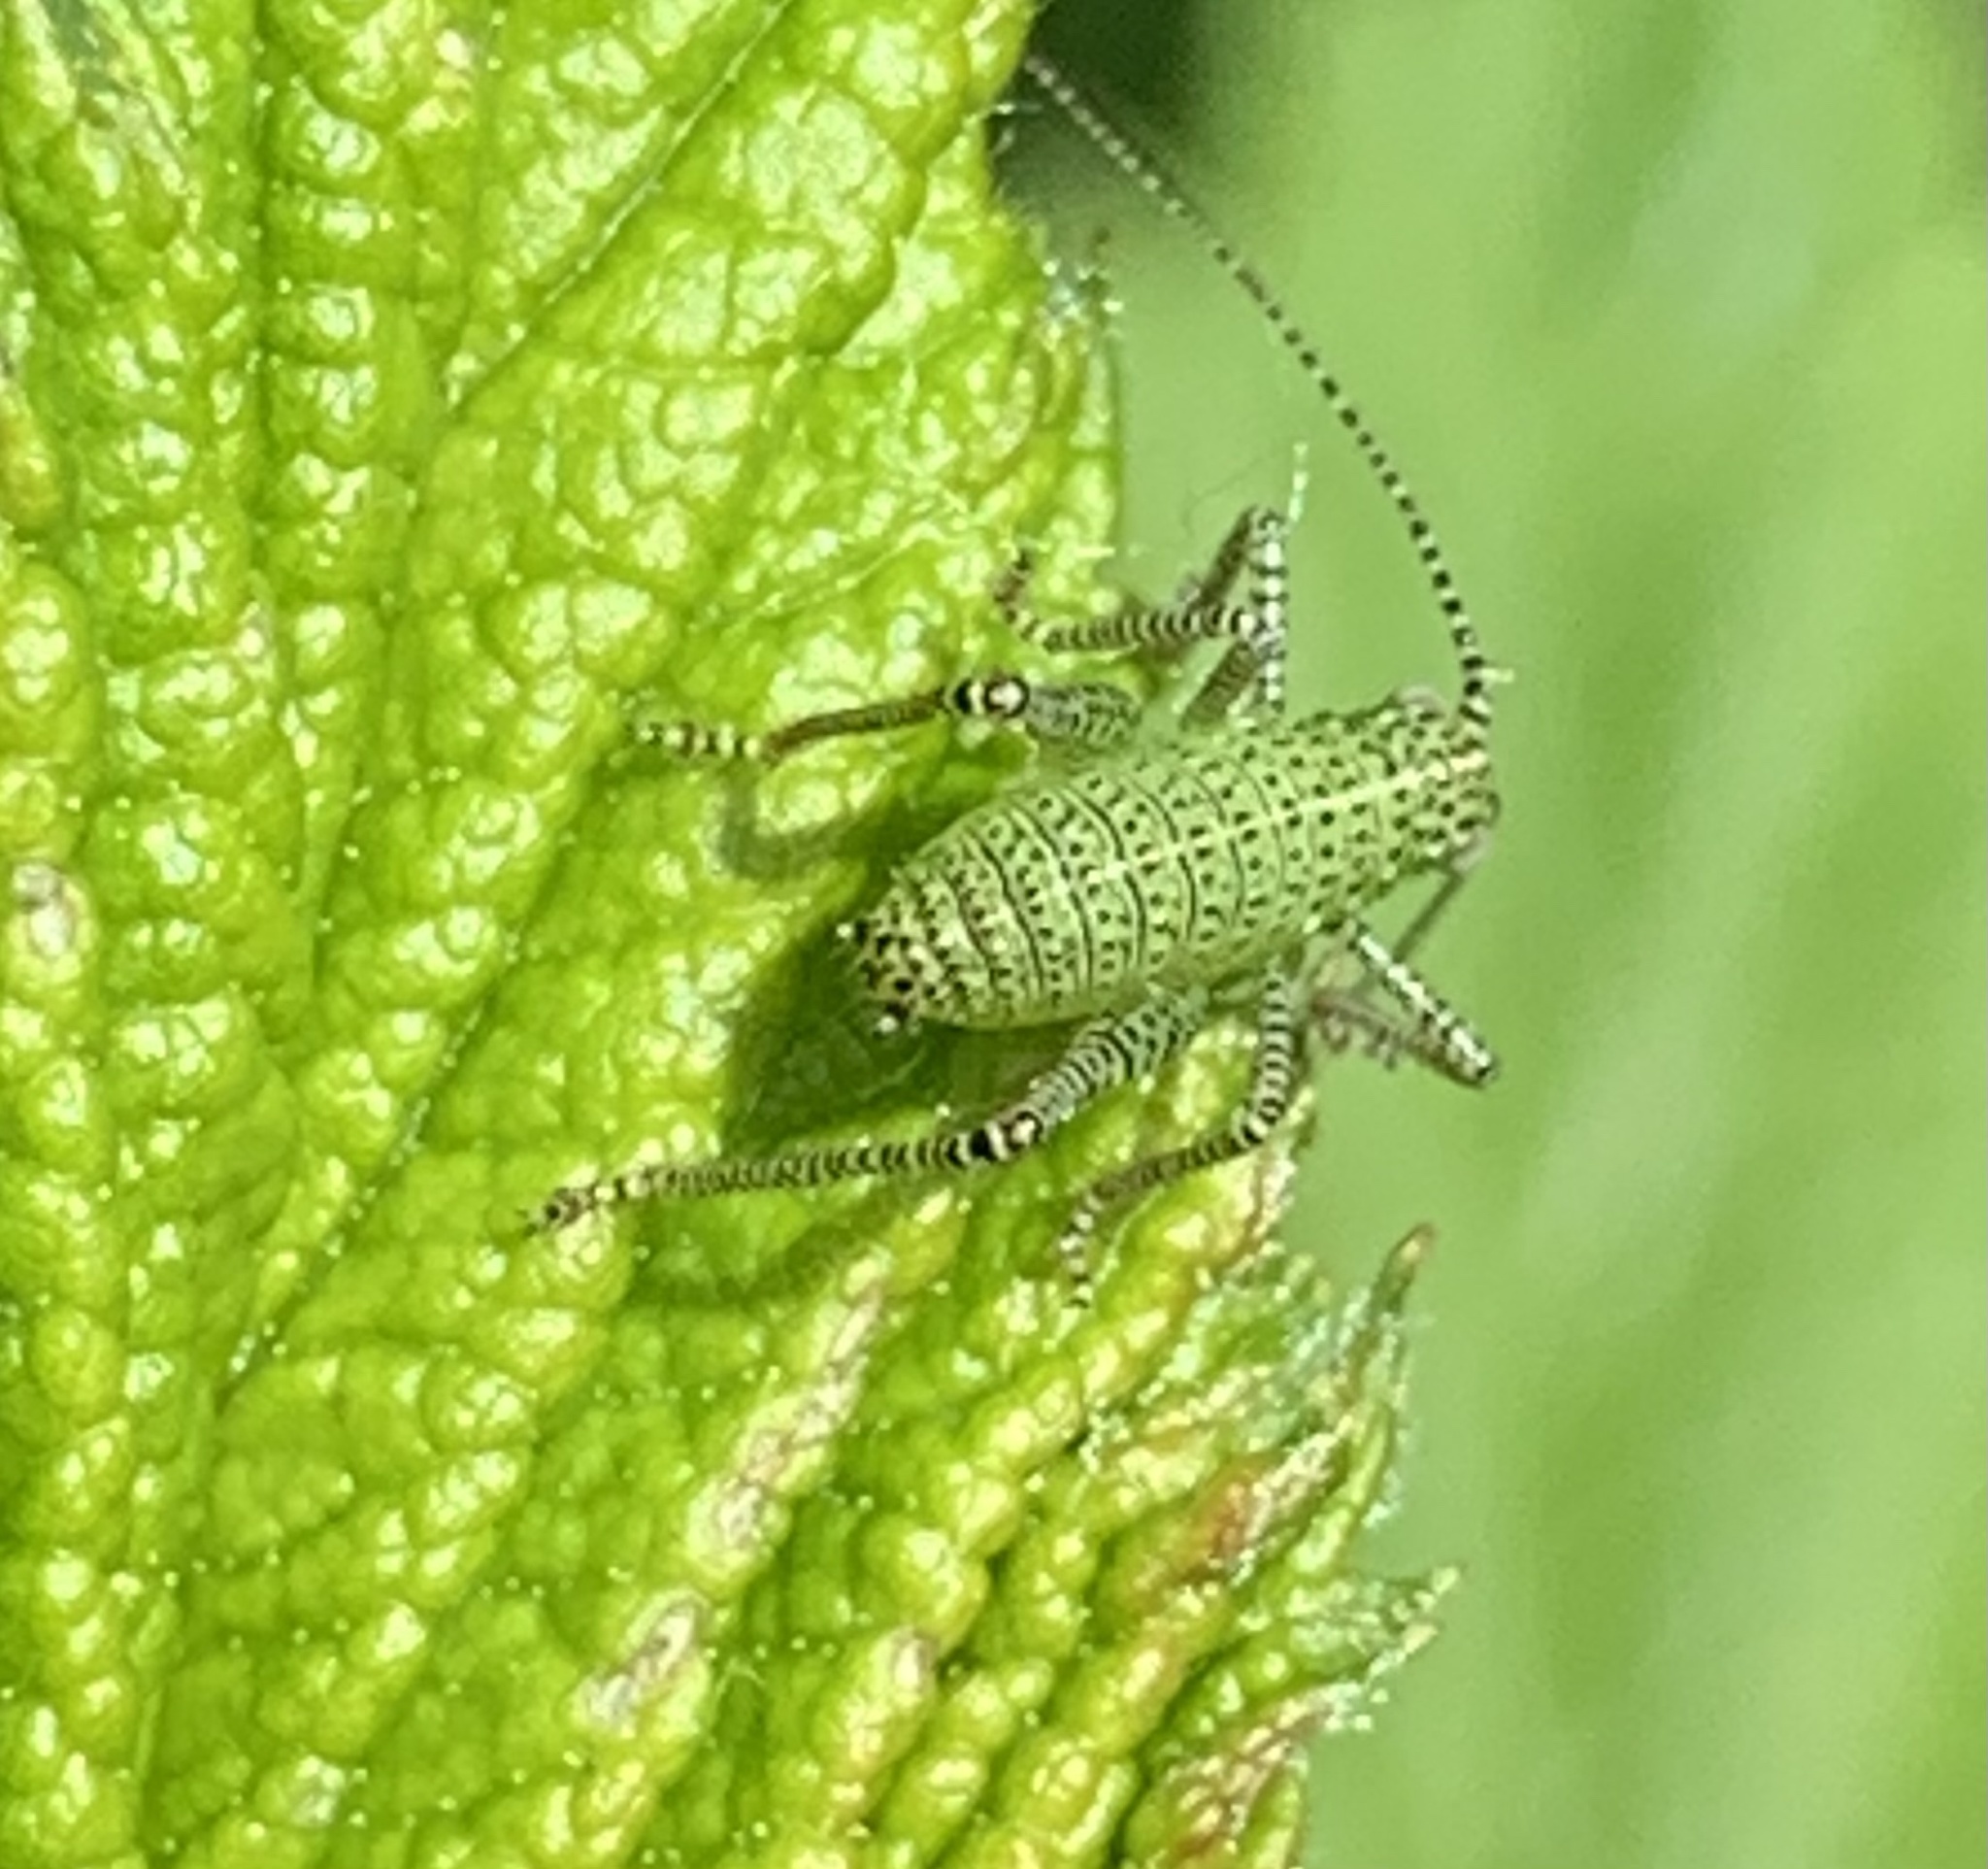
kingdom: Animalia
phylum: Arthropoda
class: Insecta
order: Orthoptera
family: Tettigoniidae
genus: Leptophyes
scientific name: Leptophyes punctatissima
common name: Speckled bush-cricket
